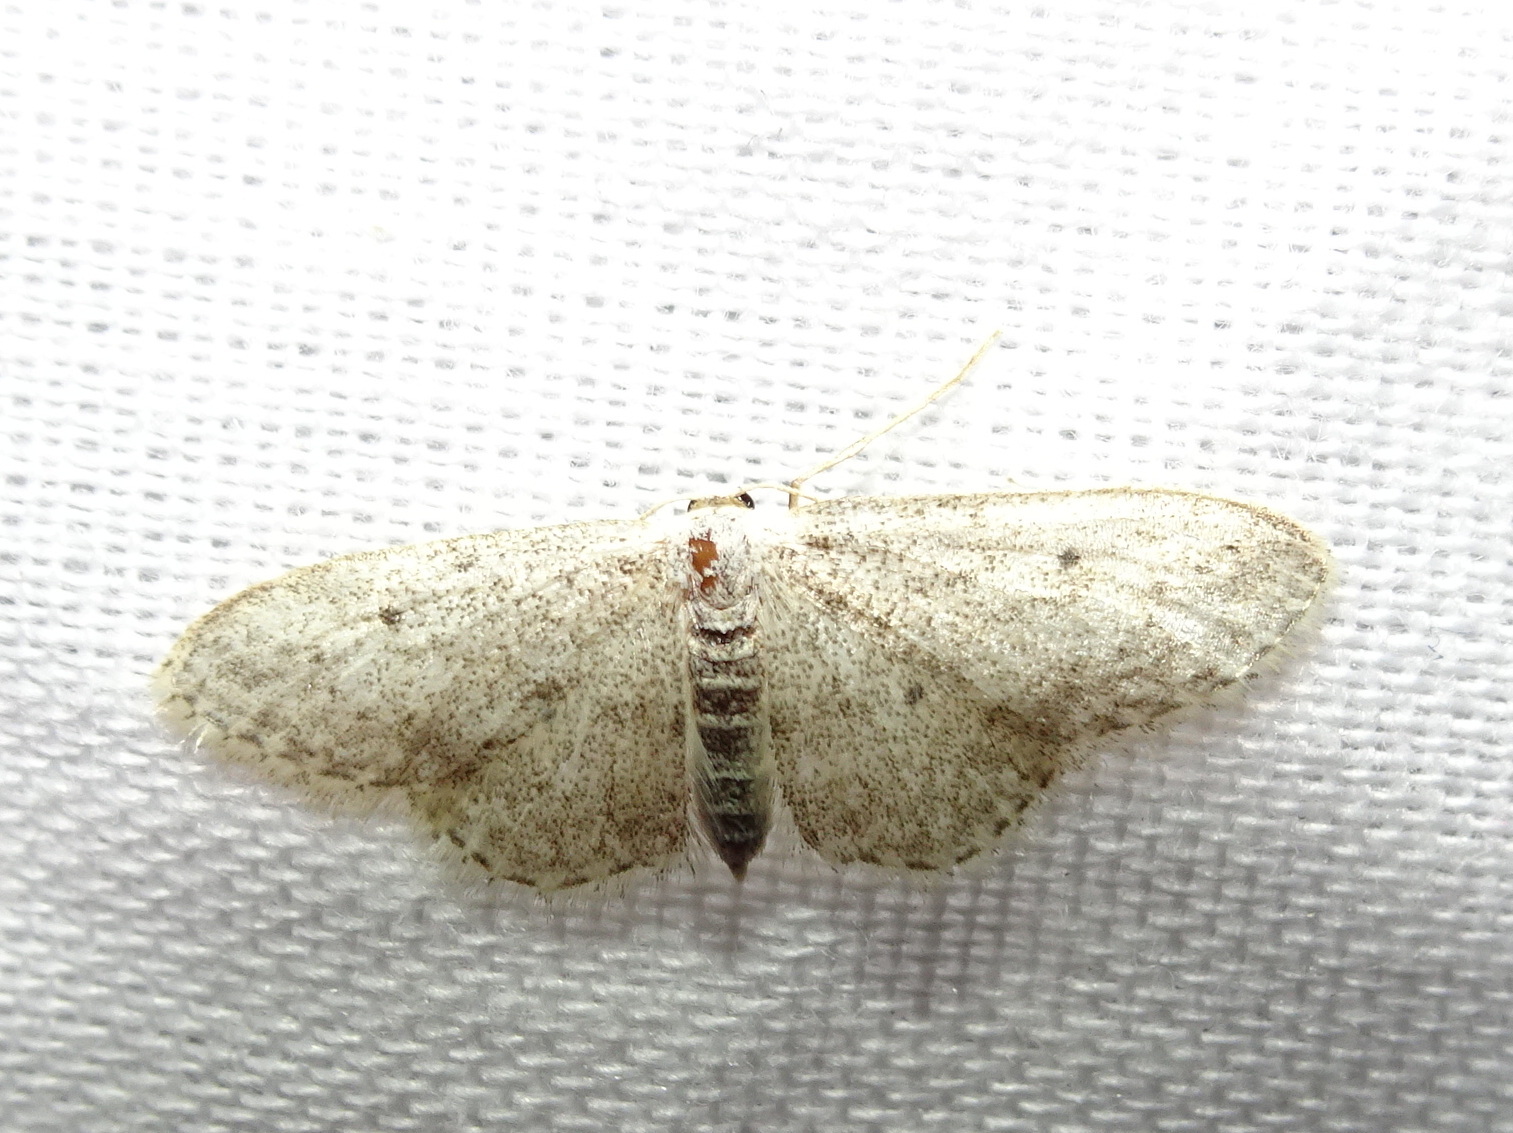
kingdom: Animalia
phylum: Arthropoda
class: Insecta
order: Lepidoptera
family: Geometridae
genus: Scopula
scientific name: Scopula marginepunctata
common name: Mullein wave
